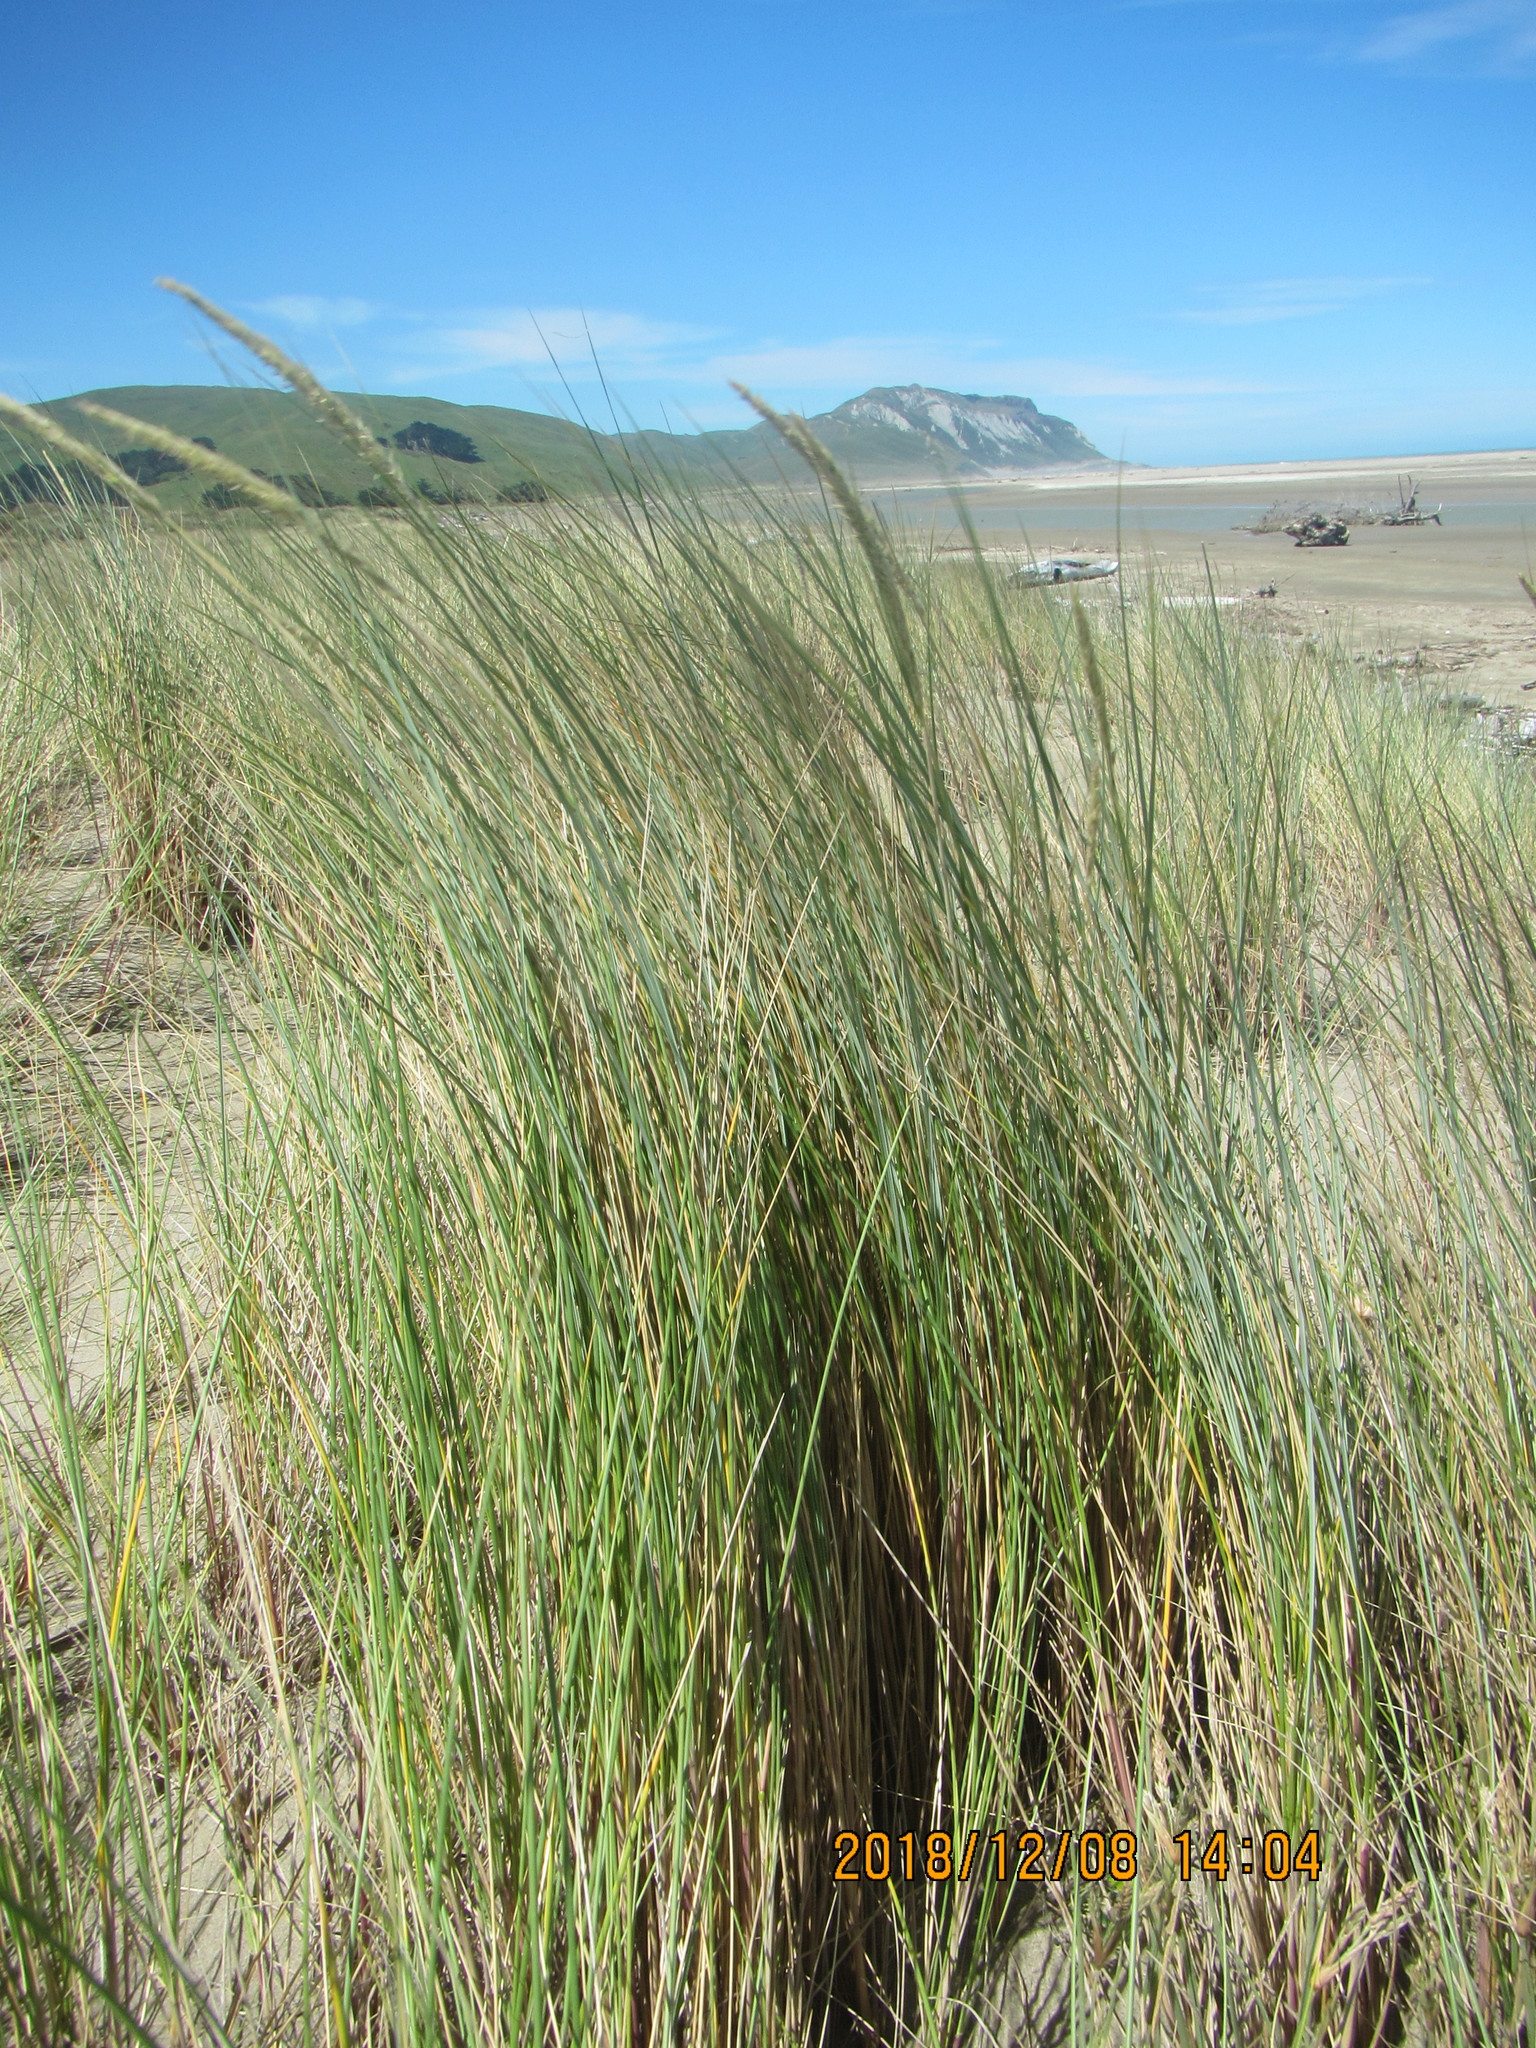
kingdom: Plantae
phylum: Tracheophyta
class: Liliopsida
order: Poales
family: Poaceae
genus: Calamagrostis
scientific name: Calamagrostis arenaria
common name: European beachgrass
